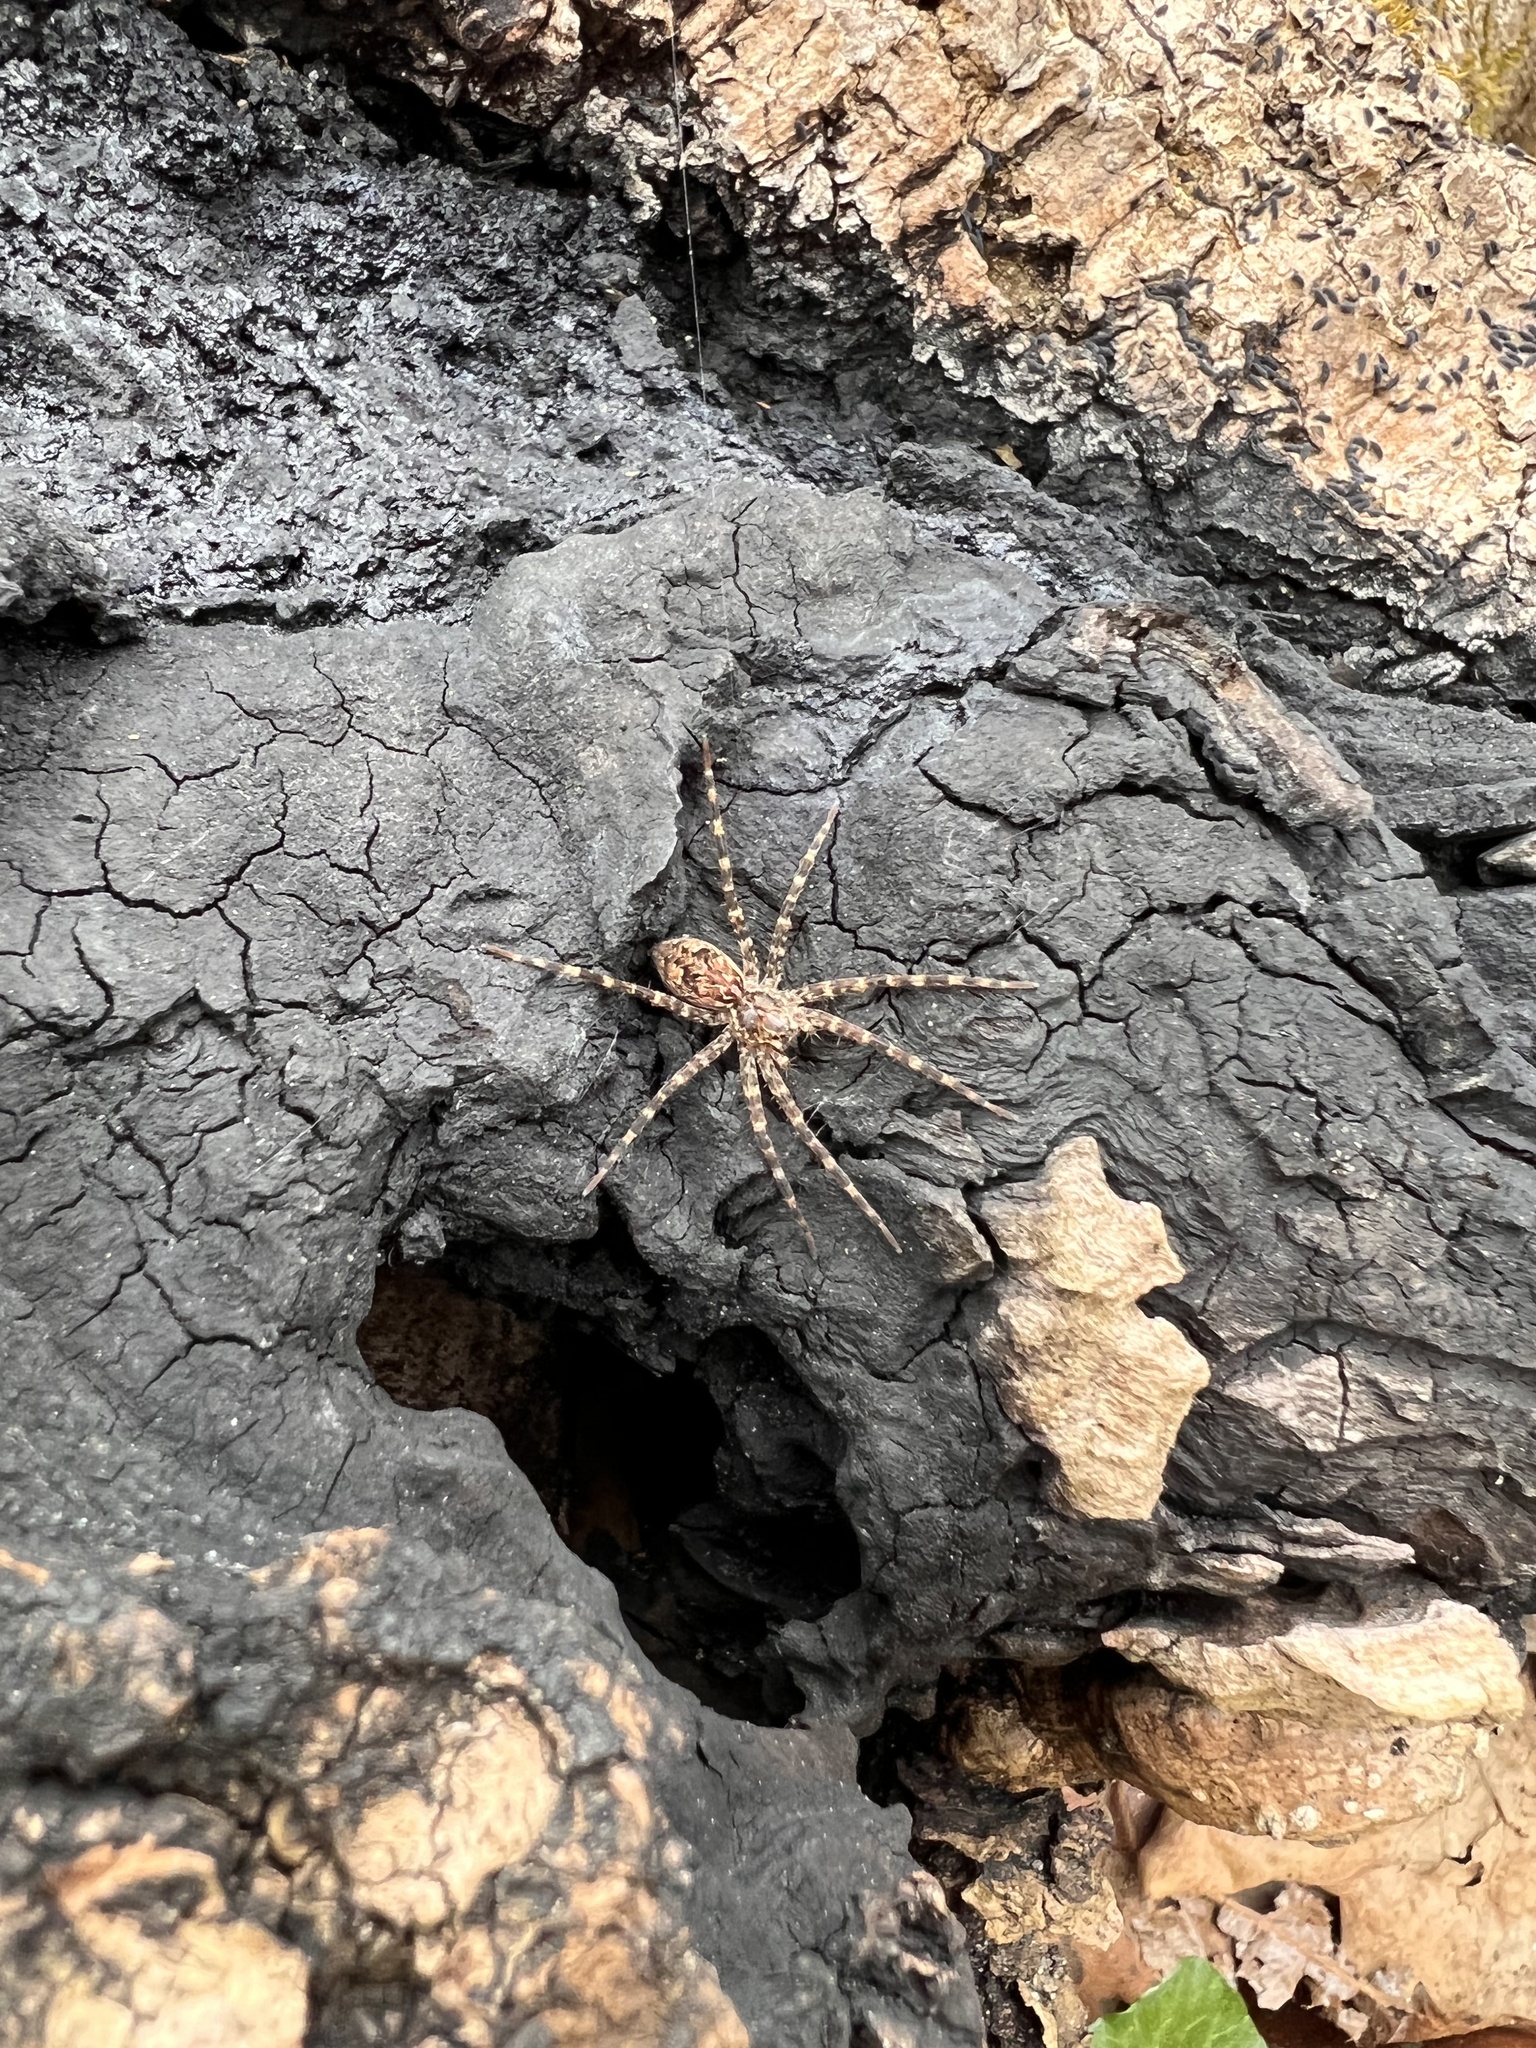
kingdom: Animalia
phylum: Arthropoda
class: Arachnida
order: Araneae
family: Pisauridae
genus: Dolomedes
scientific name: Dolomedes tenebrosus
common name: Dark fishing spider
